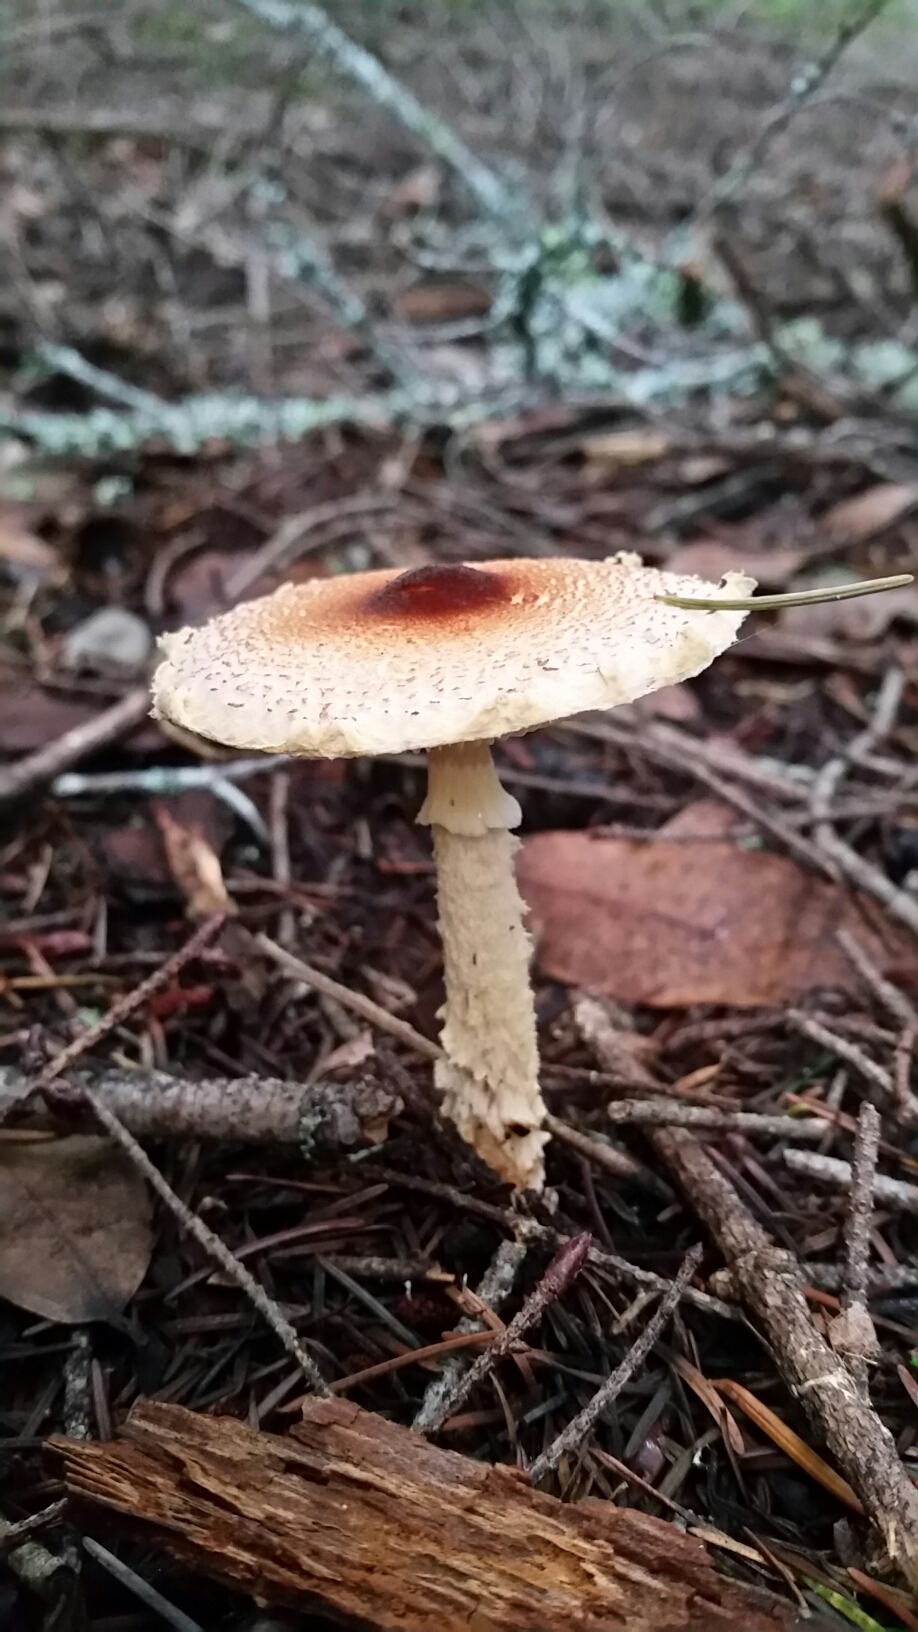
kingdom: Fungi
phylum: Basidiomycota
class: Agaricomycetes
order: Agaricales
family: Agaricaceae
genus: Lepiota
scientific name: Lepiota magnispora
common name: Yellowfoot dapperling
